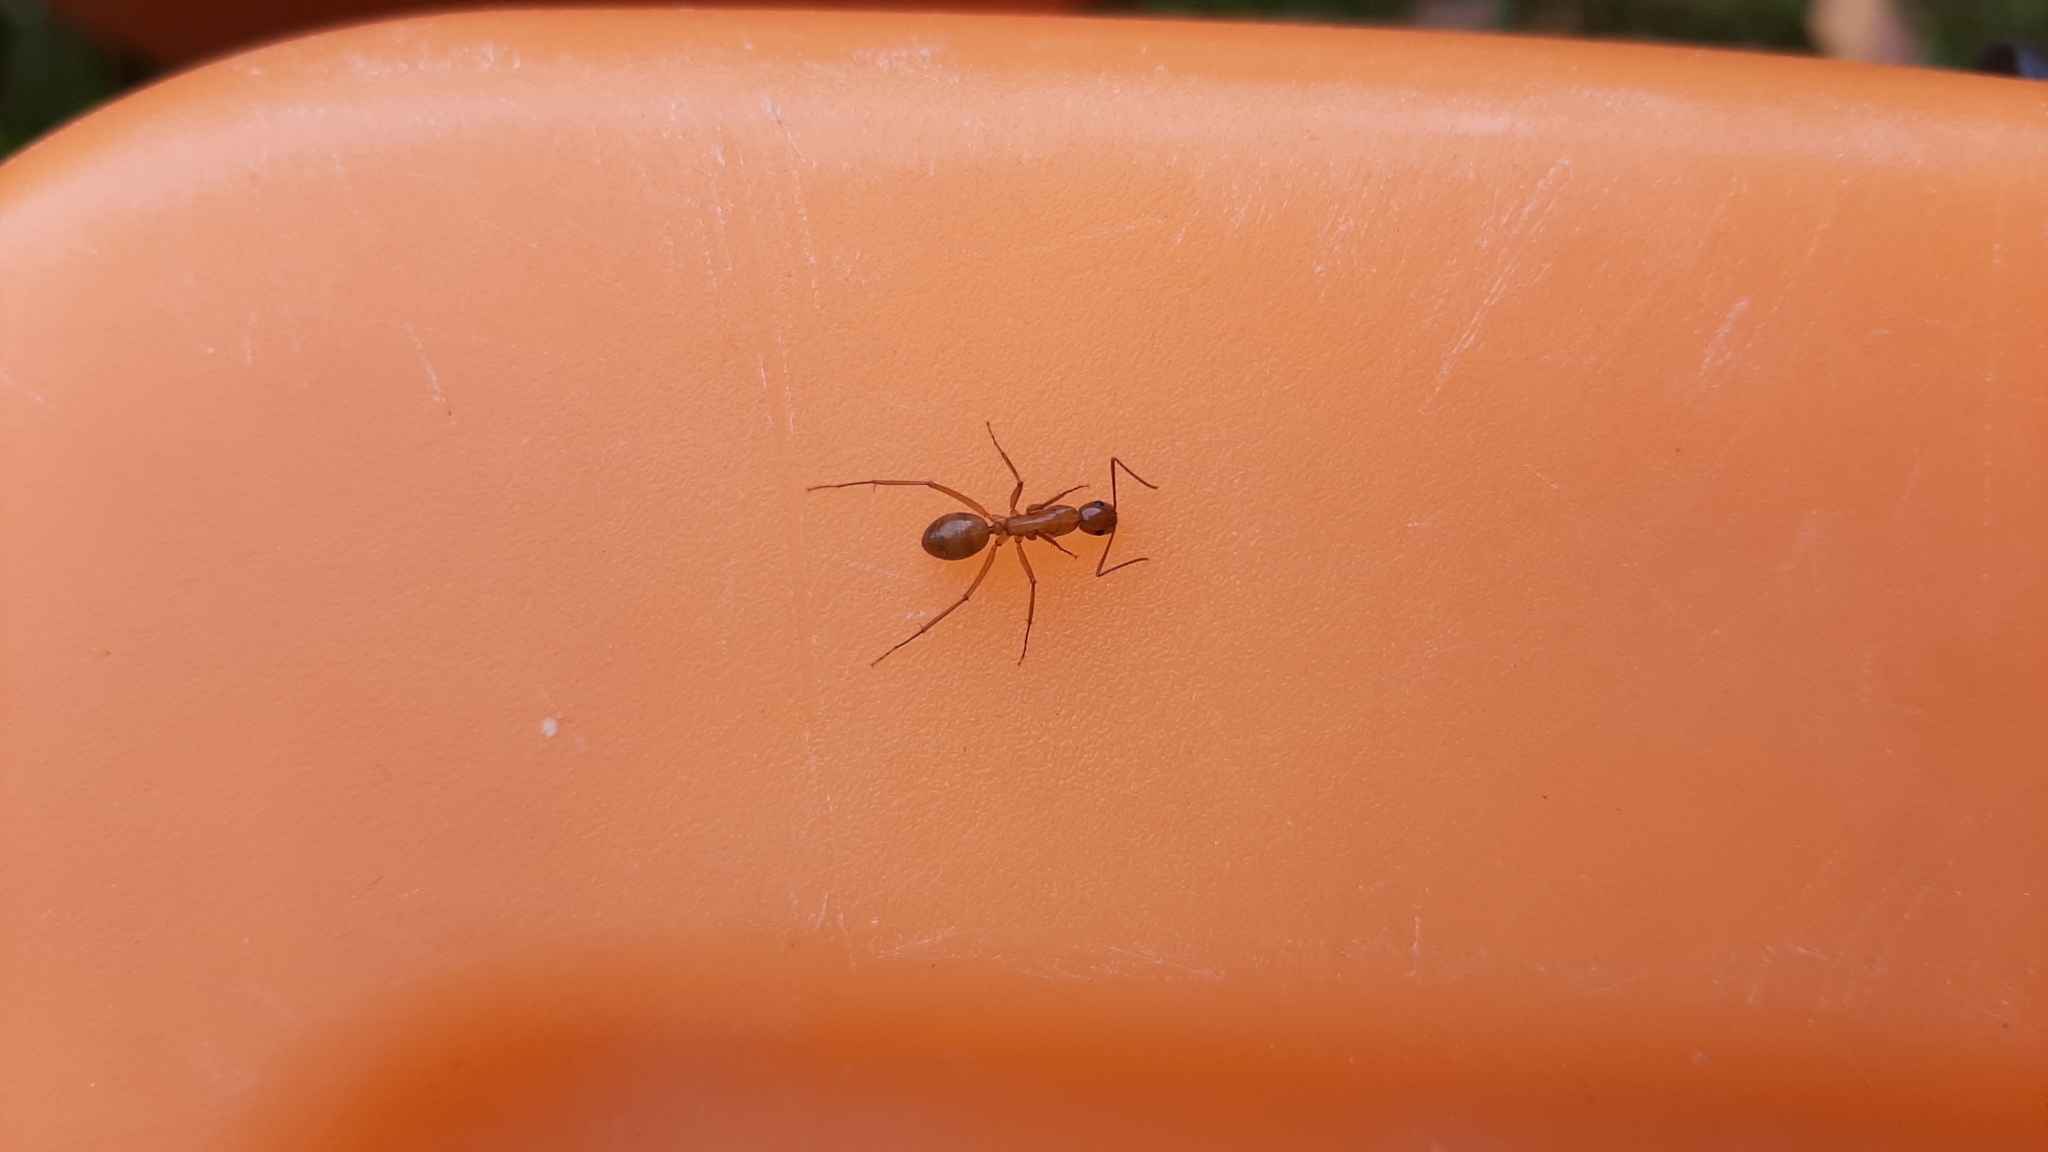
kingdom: Animalia
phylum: Arthropoda
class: Insecta
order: Hymenoptera
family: Formicidae
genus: Camponotus
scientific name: Camponotus castaneus
